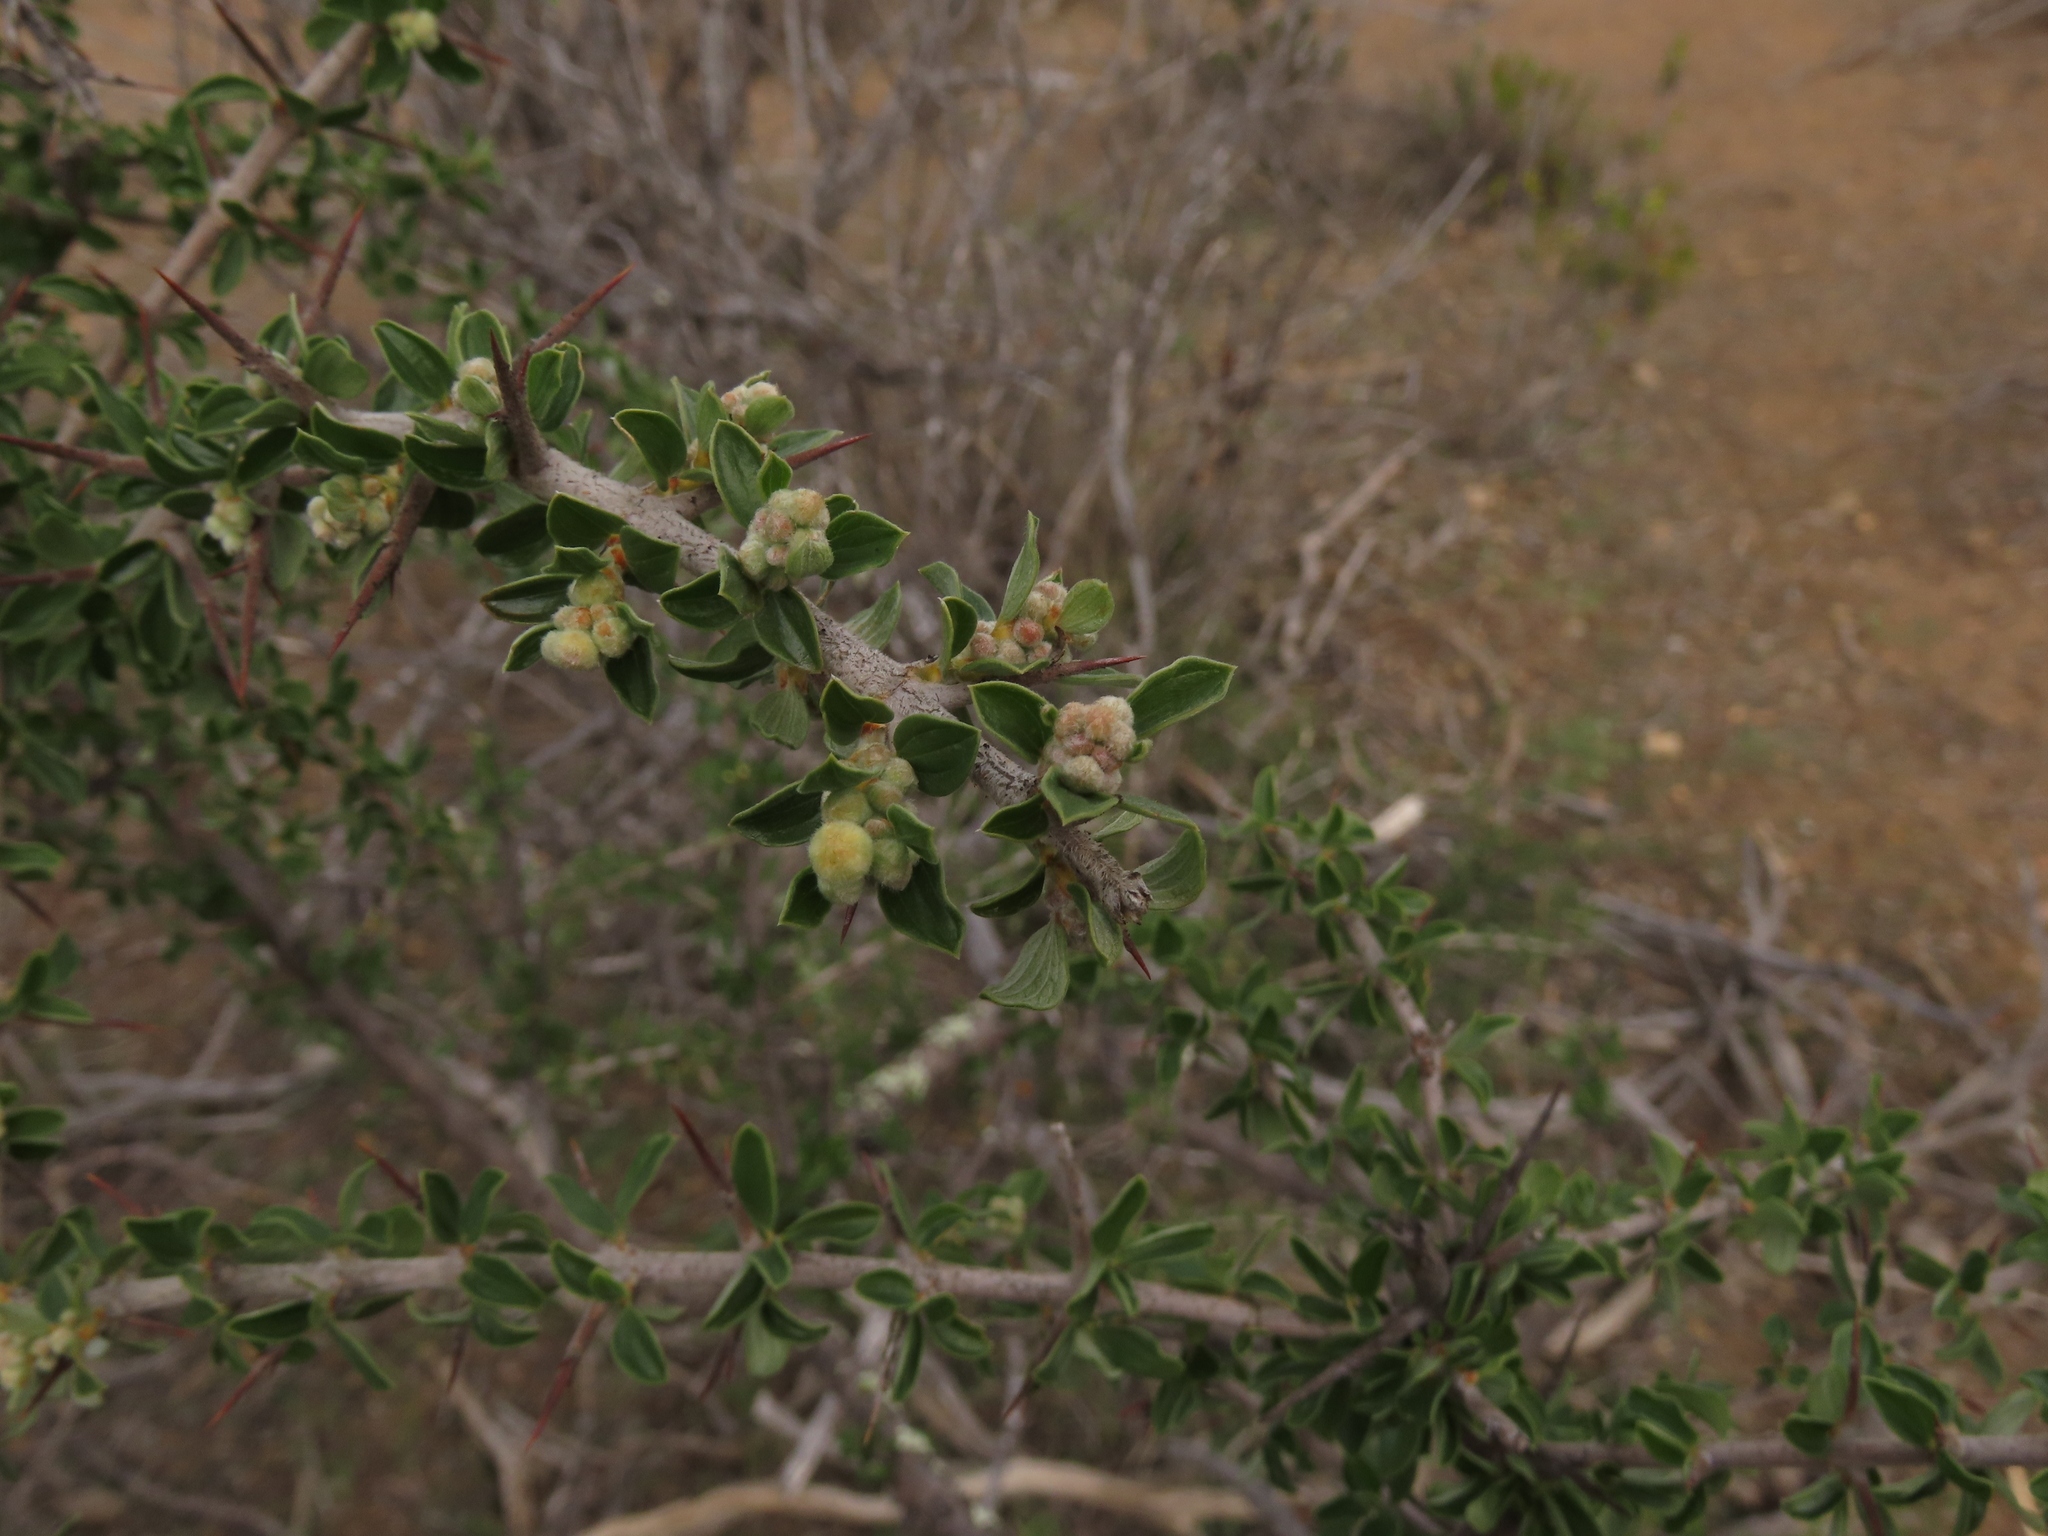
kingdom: Plantae
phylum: Tracheophyta
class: Magnoliopsida
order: Rosales
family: Rhamnaceae
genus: Trevoa
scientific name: Trevoa quinquenervia
